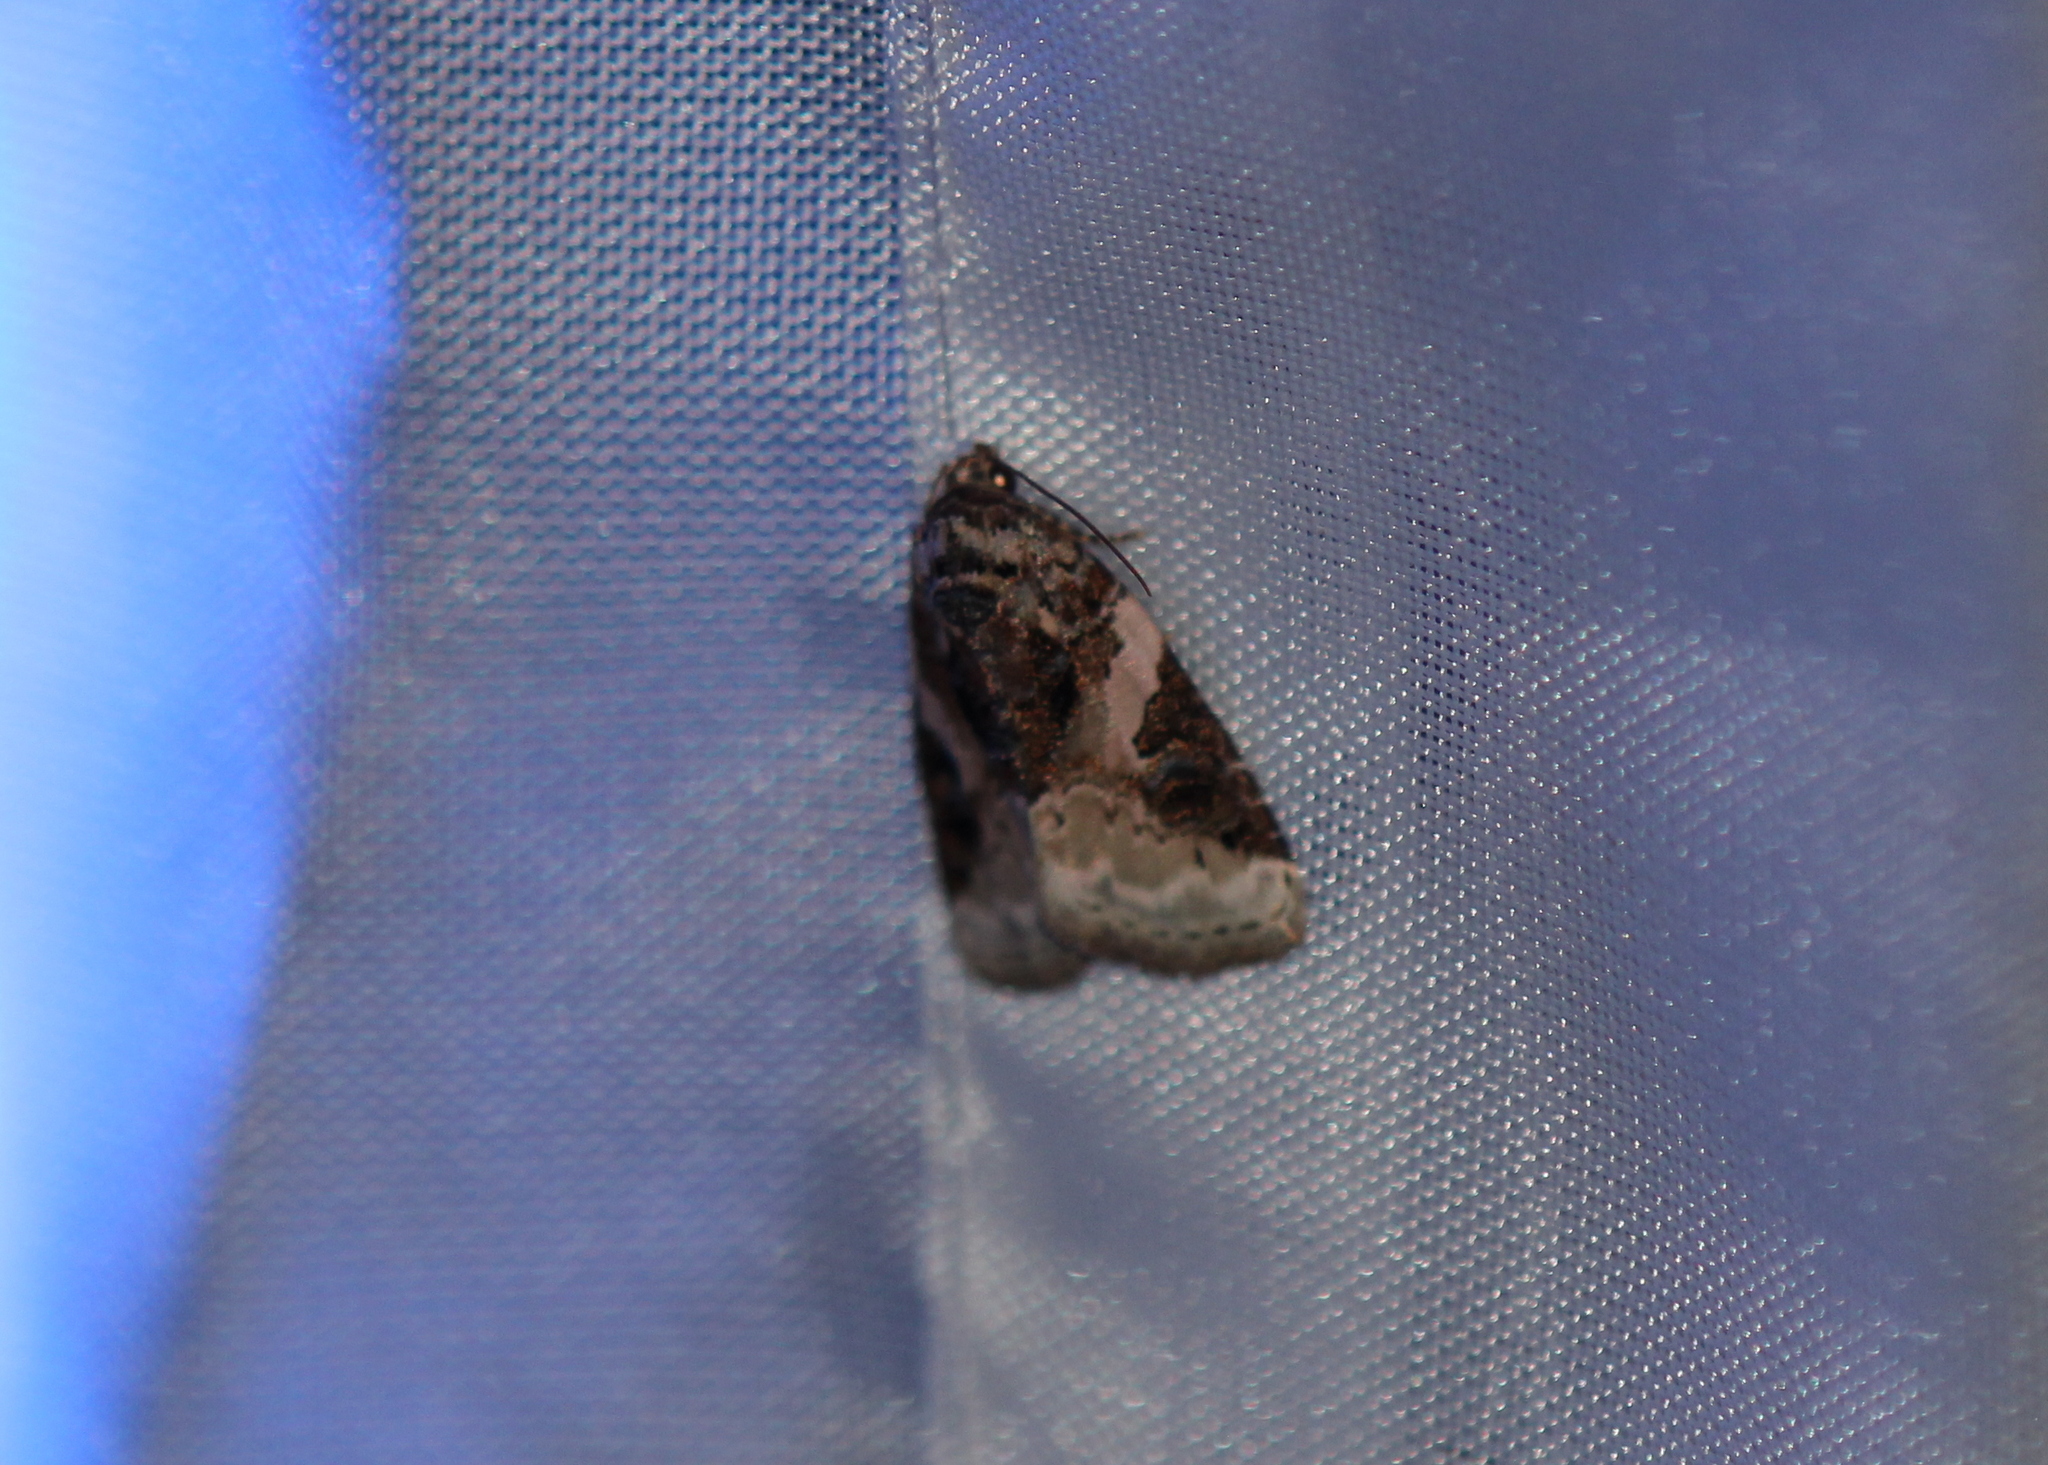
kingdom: Animalia
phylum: Arthropoda
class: Insecta
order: Lepidoptera
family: Noctuidae
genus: Pseudeustrotia
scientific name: Pseudeustrotia carneola
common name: Pink-barred lithacodia moth
